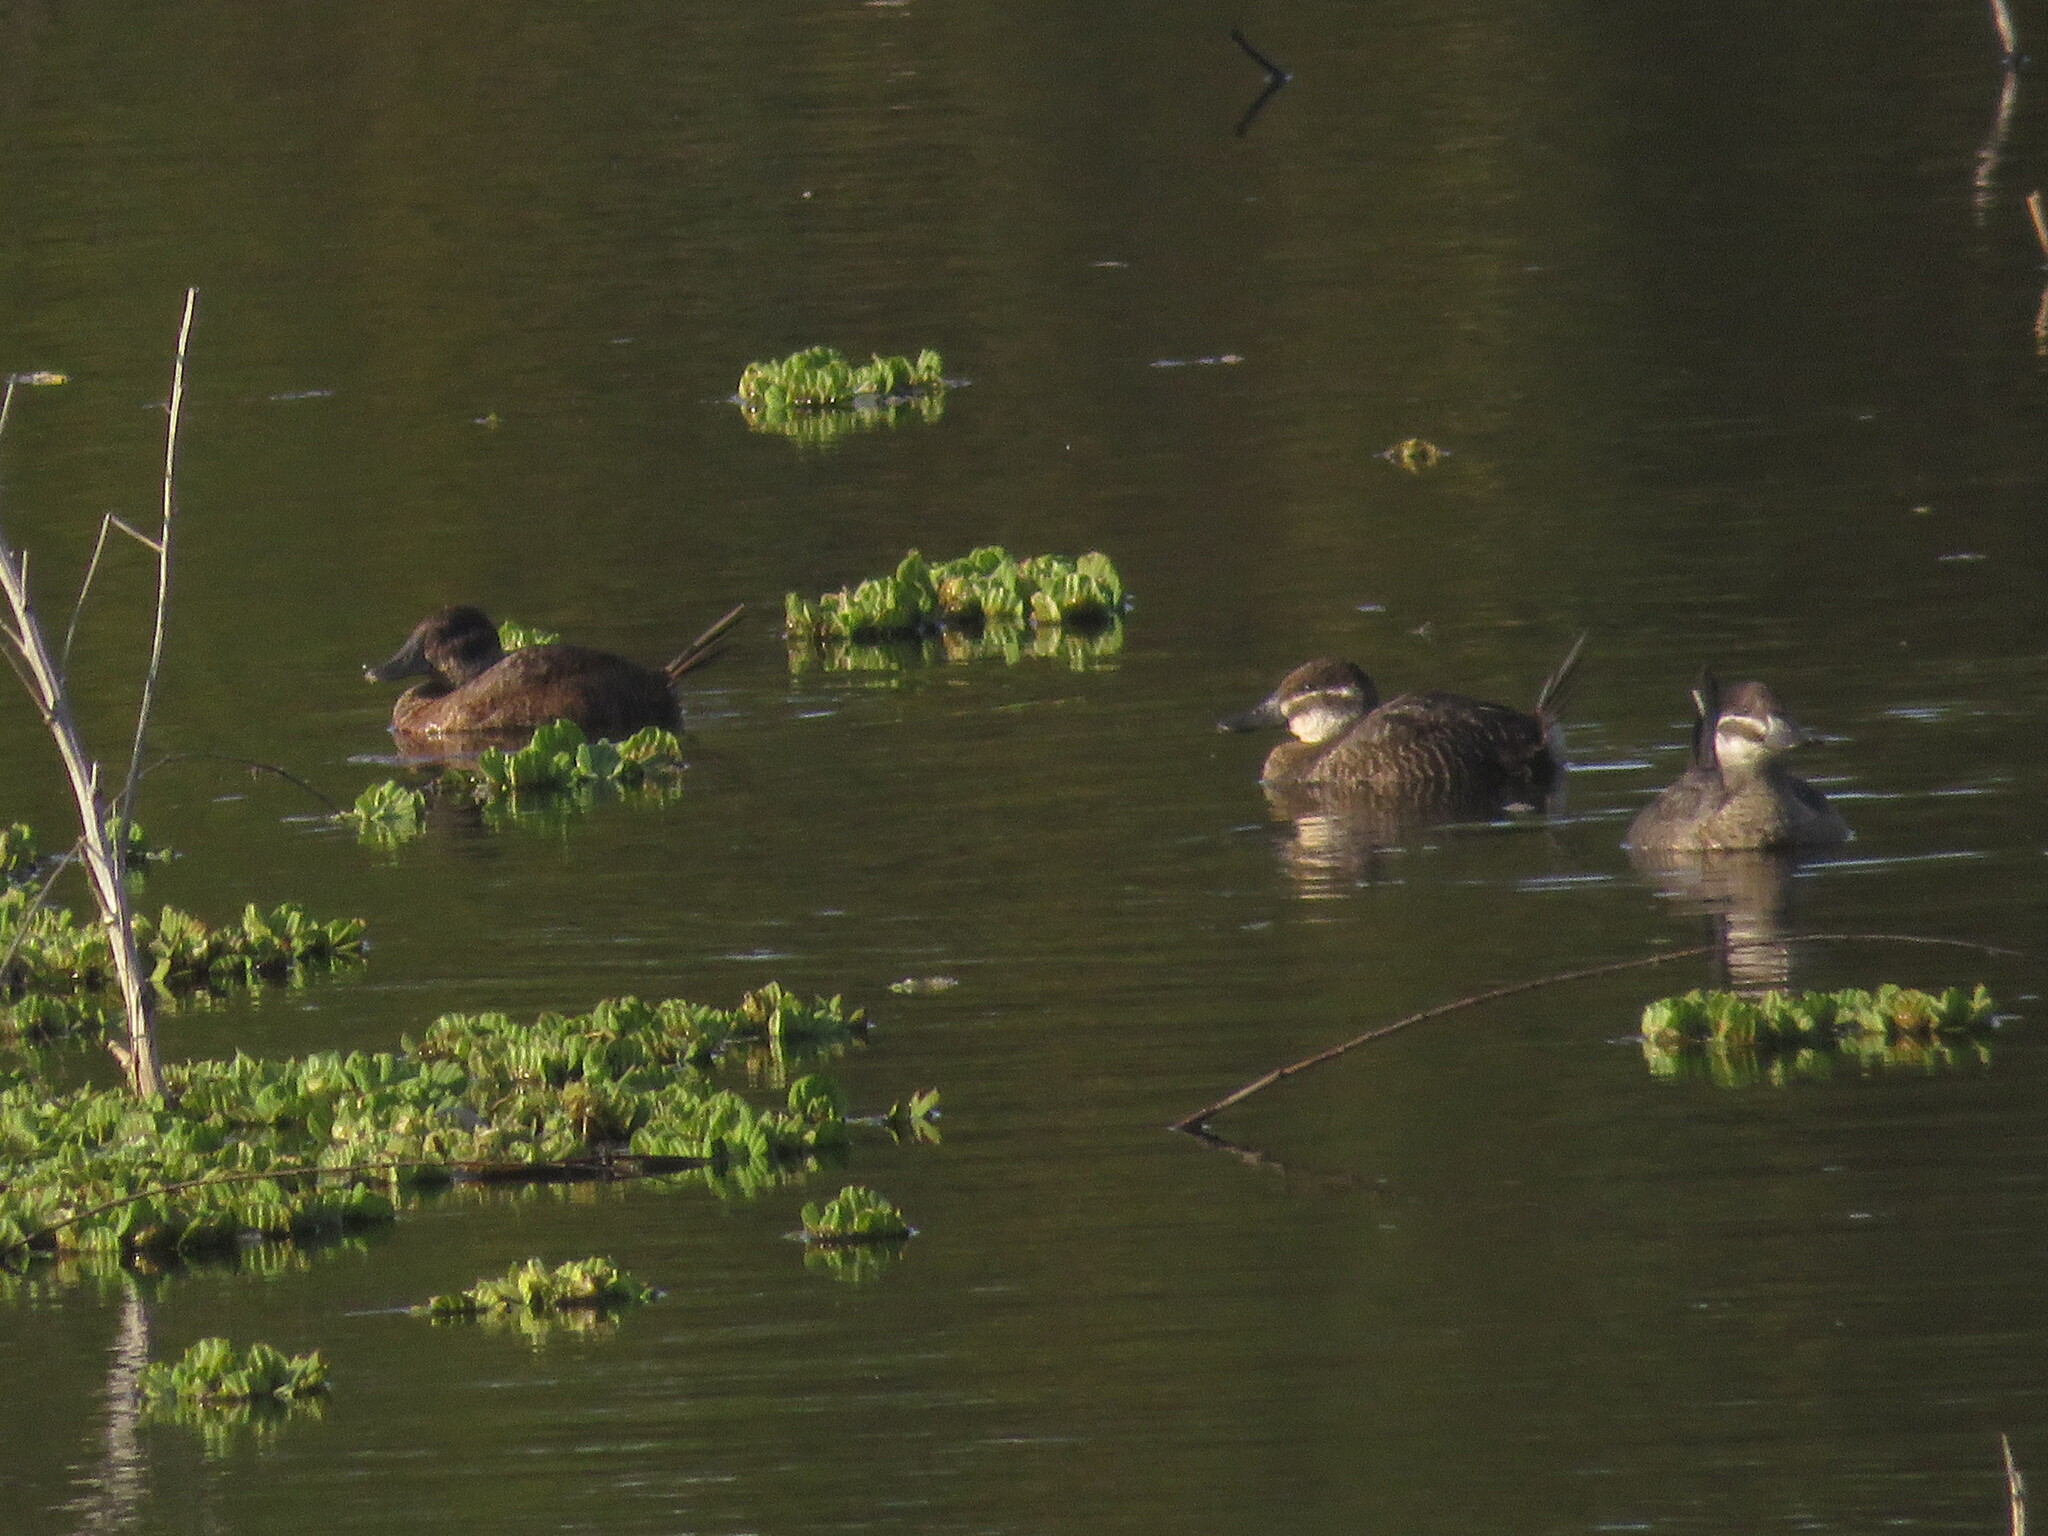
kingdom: Animalia
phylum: Chordata
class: Aves
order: Anseriformes
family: Anatidae
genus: Oxyura
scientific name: Oxyura vittata
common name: Lake duck
